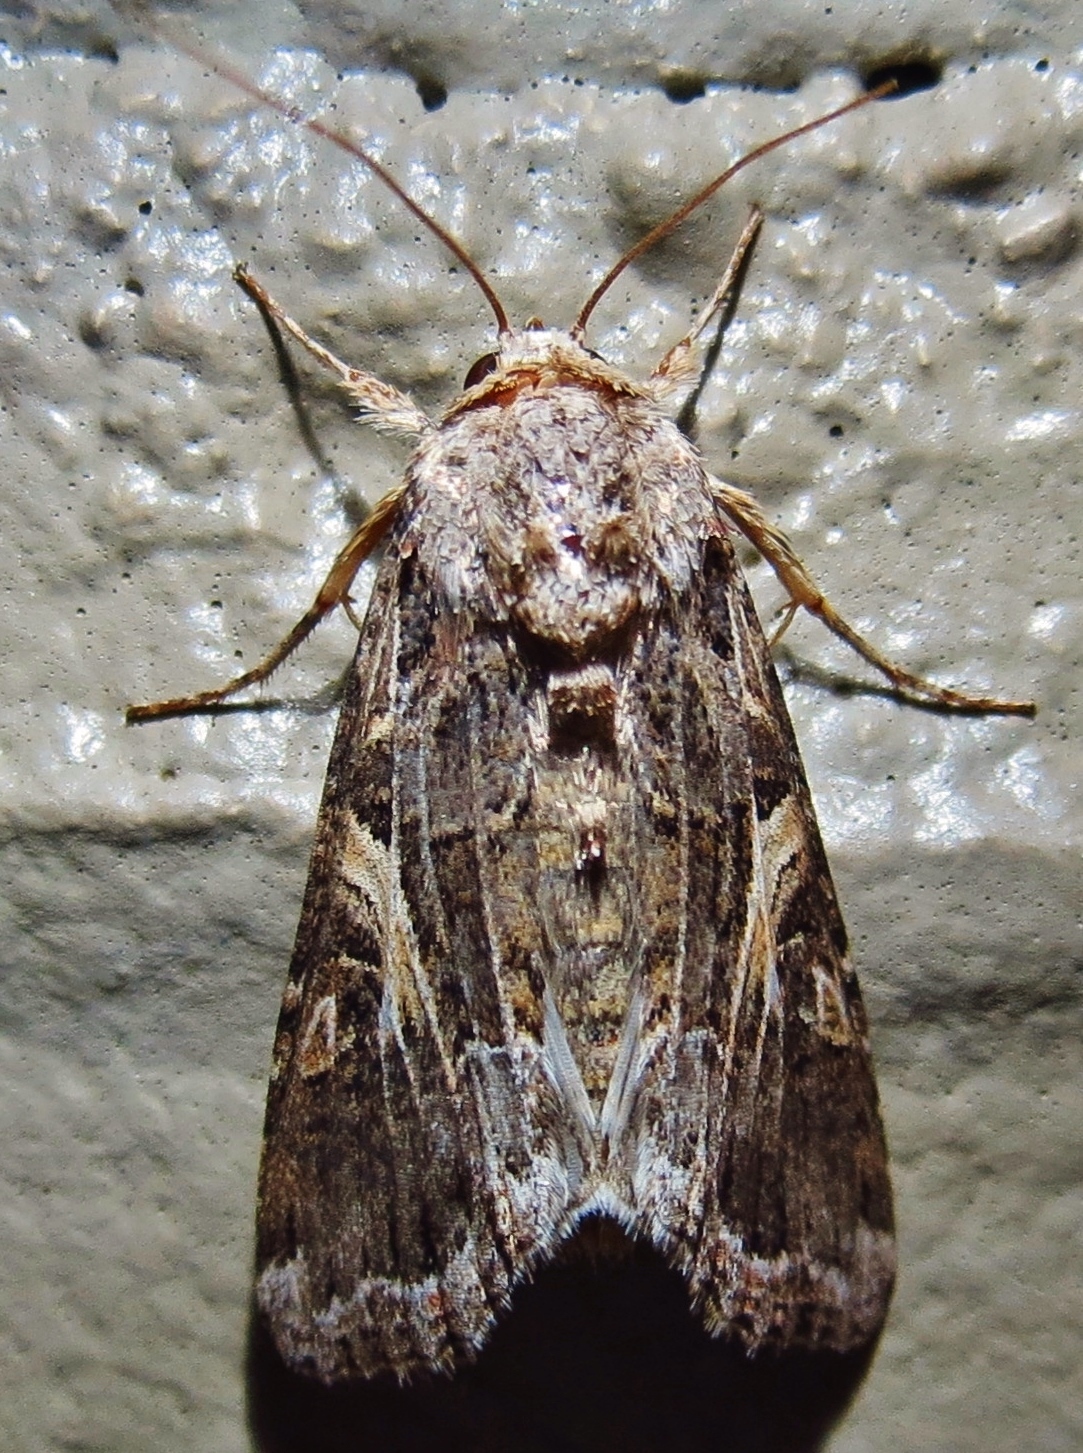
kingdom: Animalia
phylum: Arthropoda
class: Insecta
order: Lepidoptera
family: Noctuidae
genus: Spodoptera
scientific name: Spodoptera ornithogalli
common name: Yellow-striped armyworm
